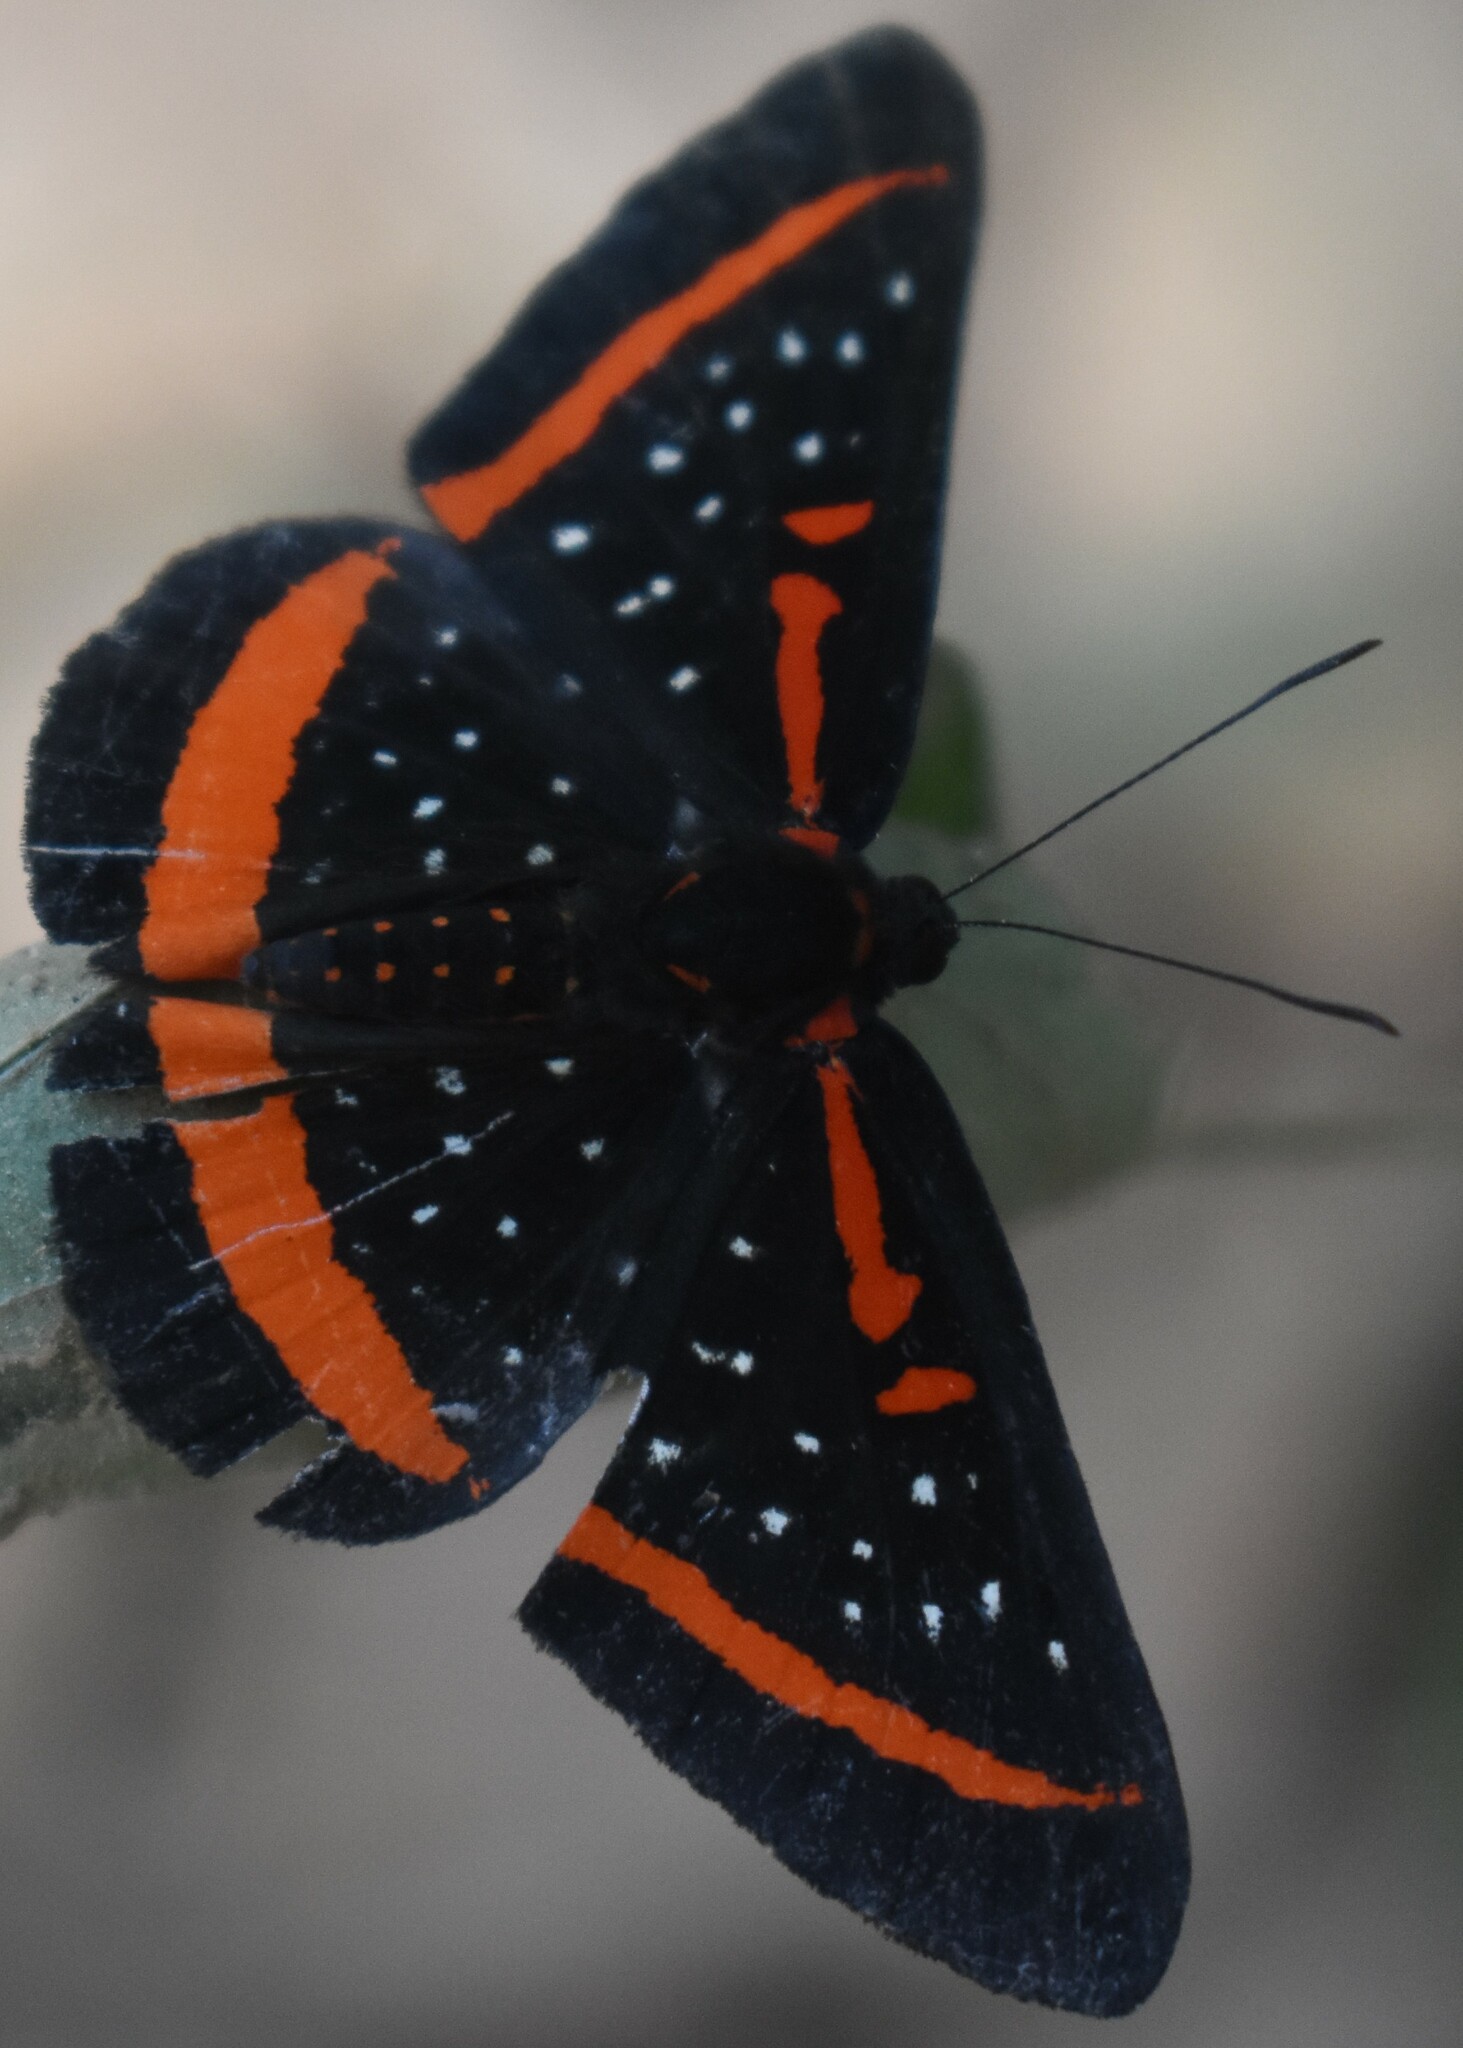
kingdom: Animalia
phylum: Arthropoda
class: Insecta
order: Lepidoptera
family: Riodinidae
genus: Amarynthis
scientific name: Amarynthis meneria
